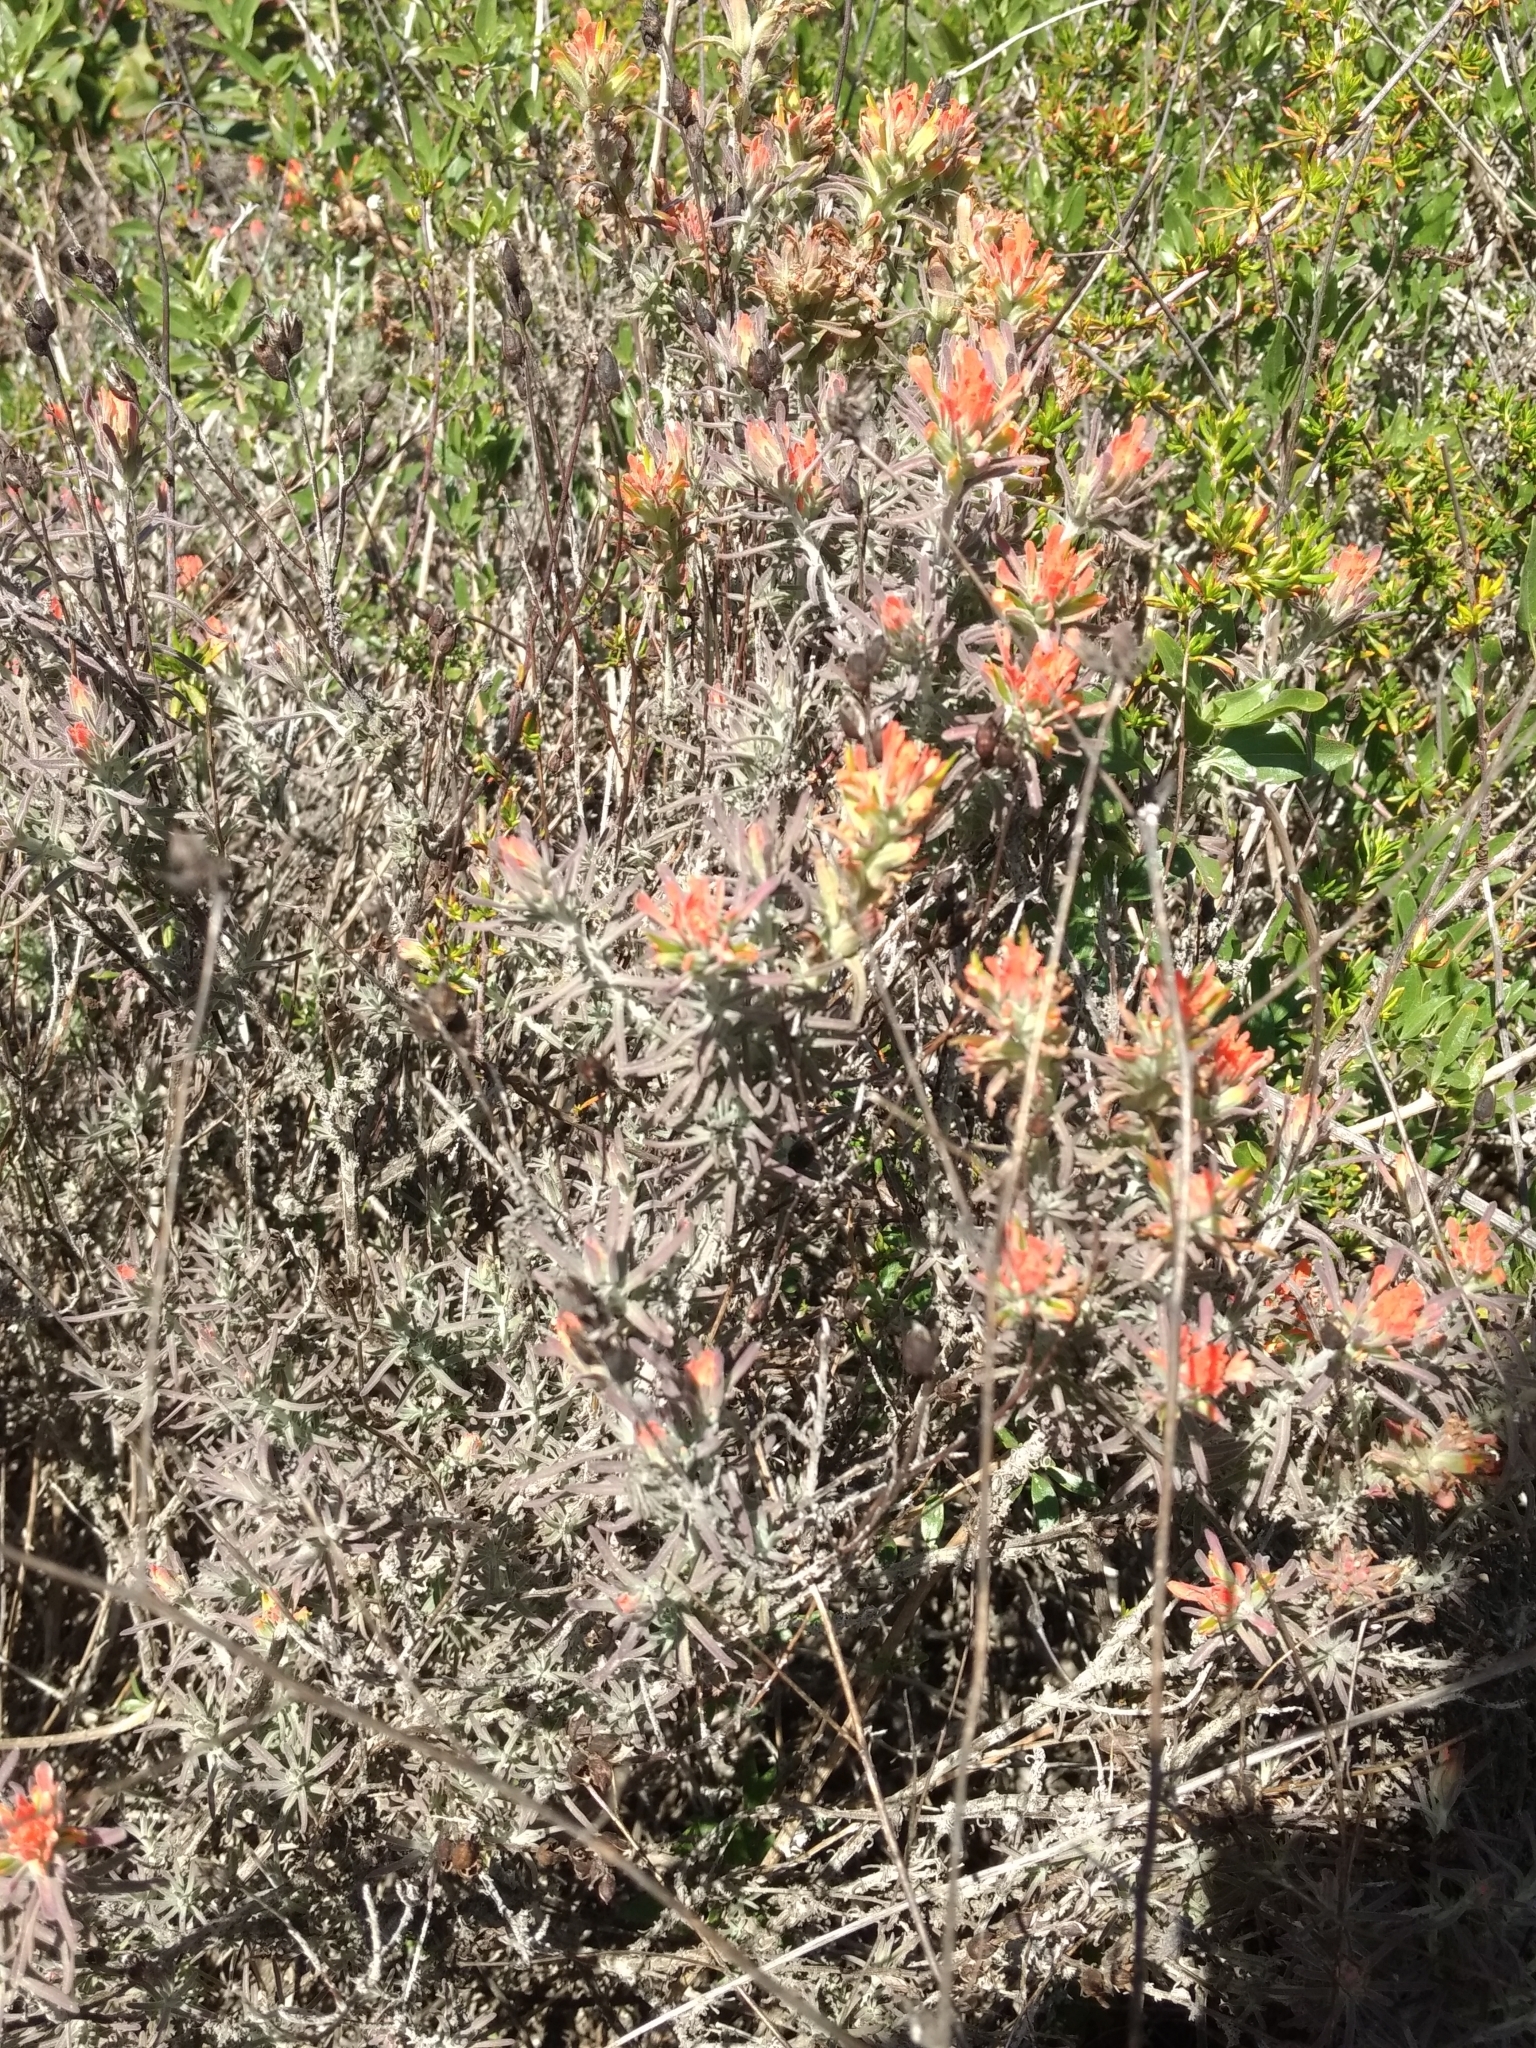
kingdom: Plantae
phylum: Tracheophyta
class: Magnoliopsida
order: Lamiales
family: Orobanchaceae
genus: Castilleja
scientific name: Castilleja foliolosa
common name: Woolly indian paintbrush
